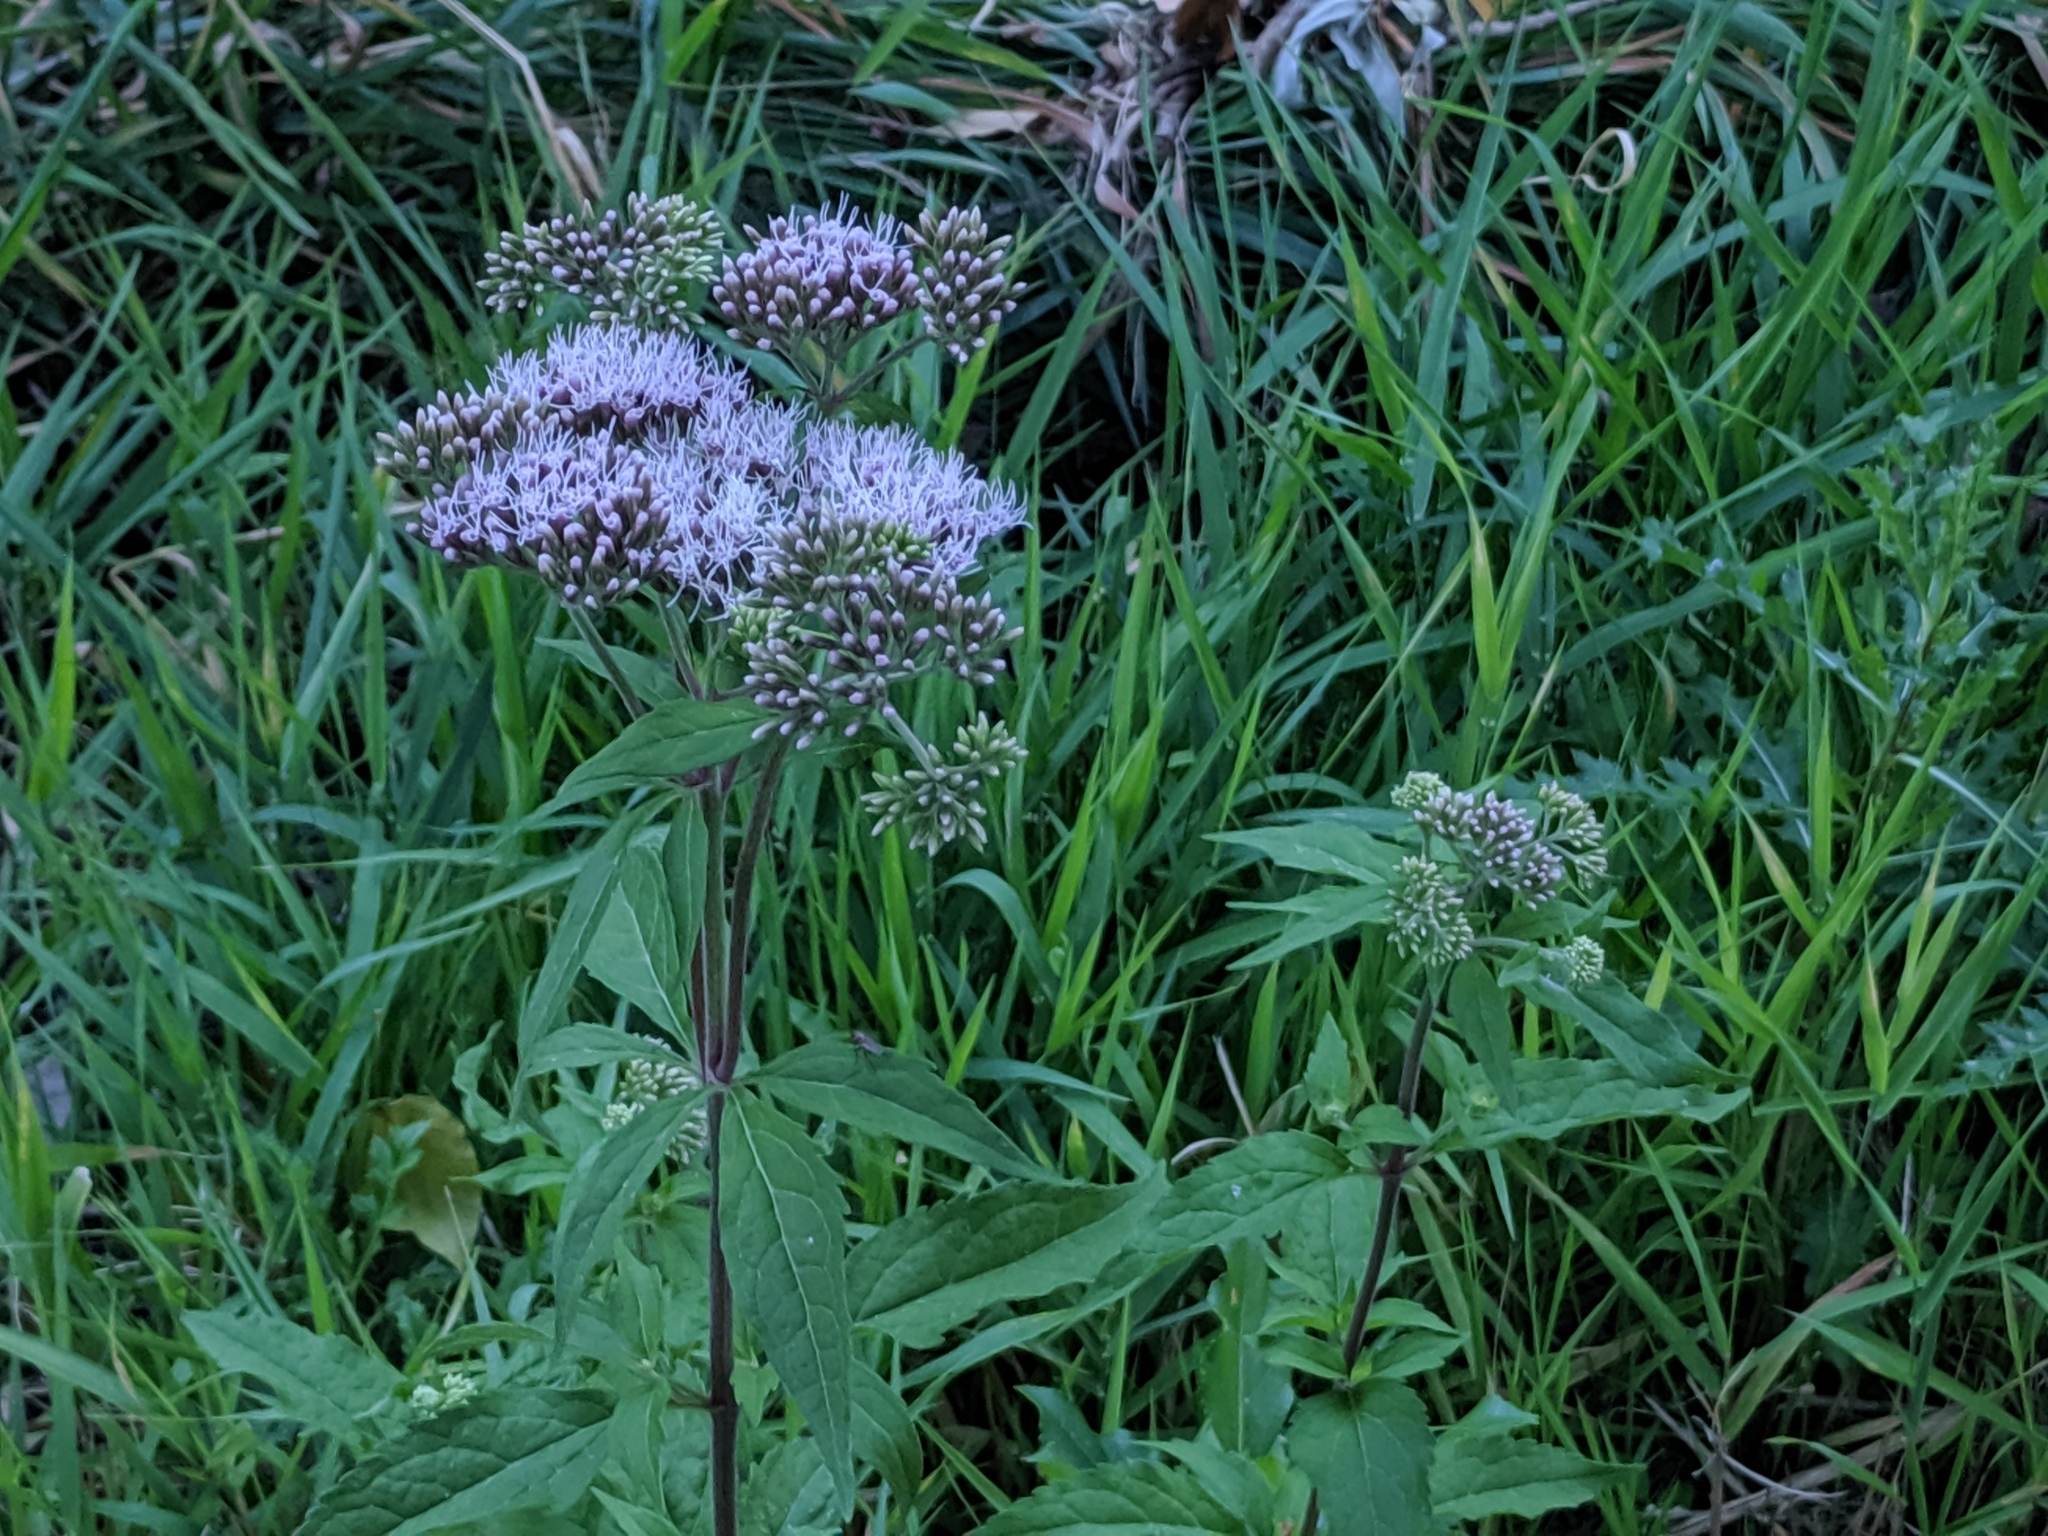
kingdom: Plantae
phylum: Tracheophyta
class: Magnoliopsida
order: Asterales
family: Asteraceae
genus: Eupatorium
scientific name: Eupatorium cannabinum
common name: Hemp-agrimony
